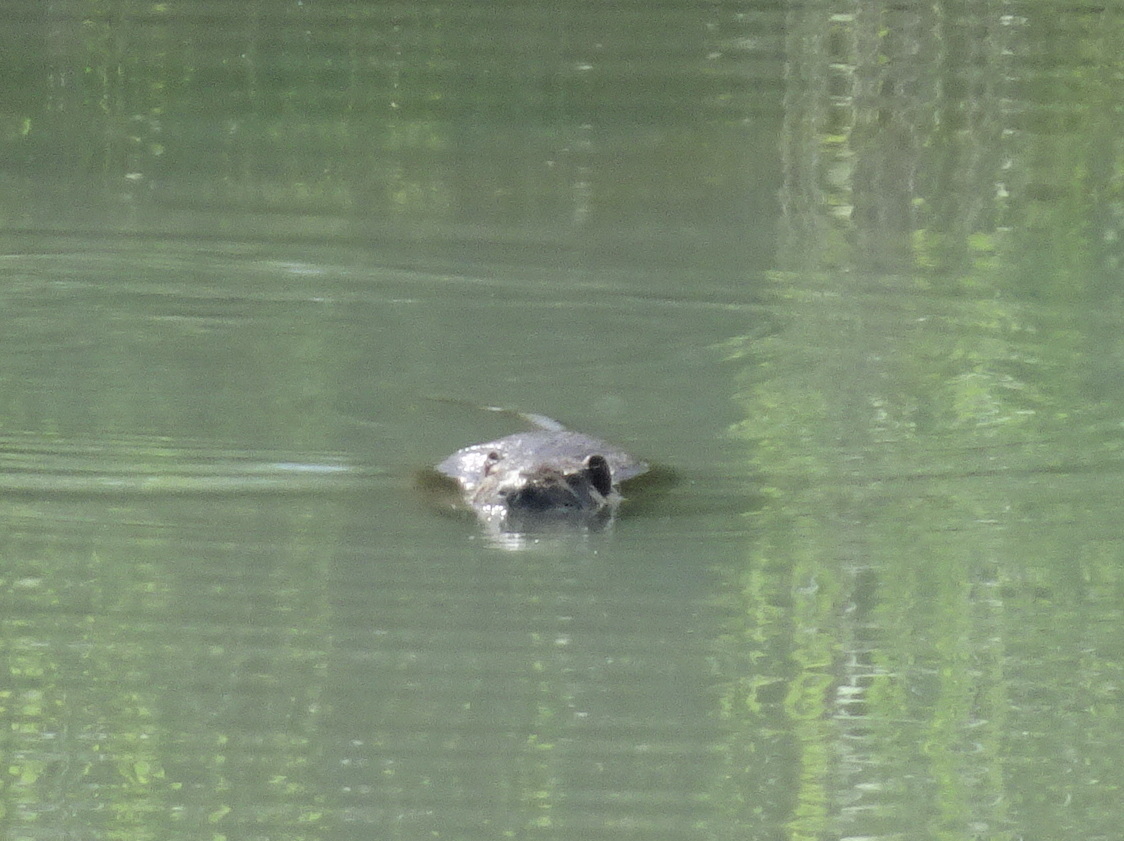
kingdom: Animalia
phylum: Chordata
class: Mammalia
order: Rodentia
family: Myocastoridae
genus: Myocastor
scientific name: Myocastor coypus
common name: Coypu
